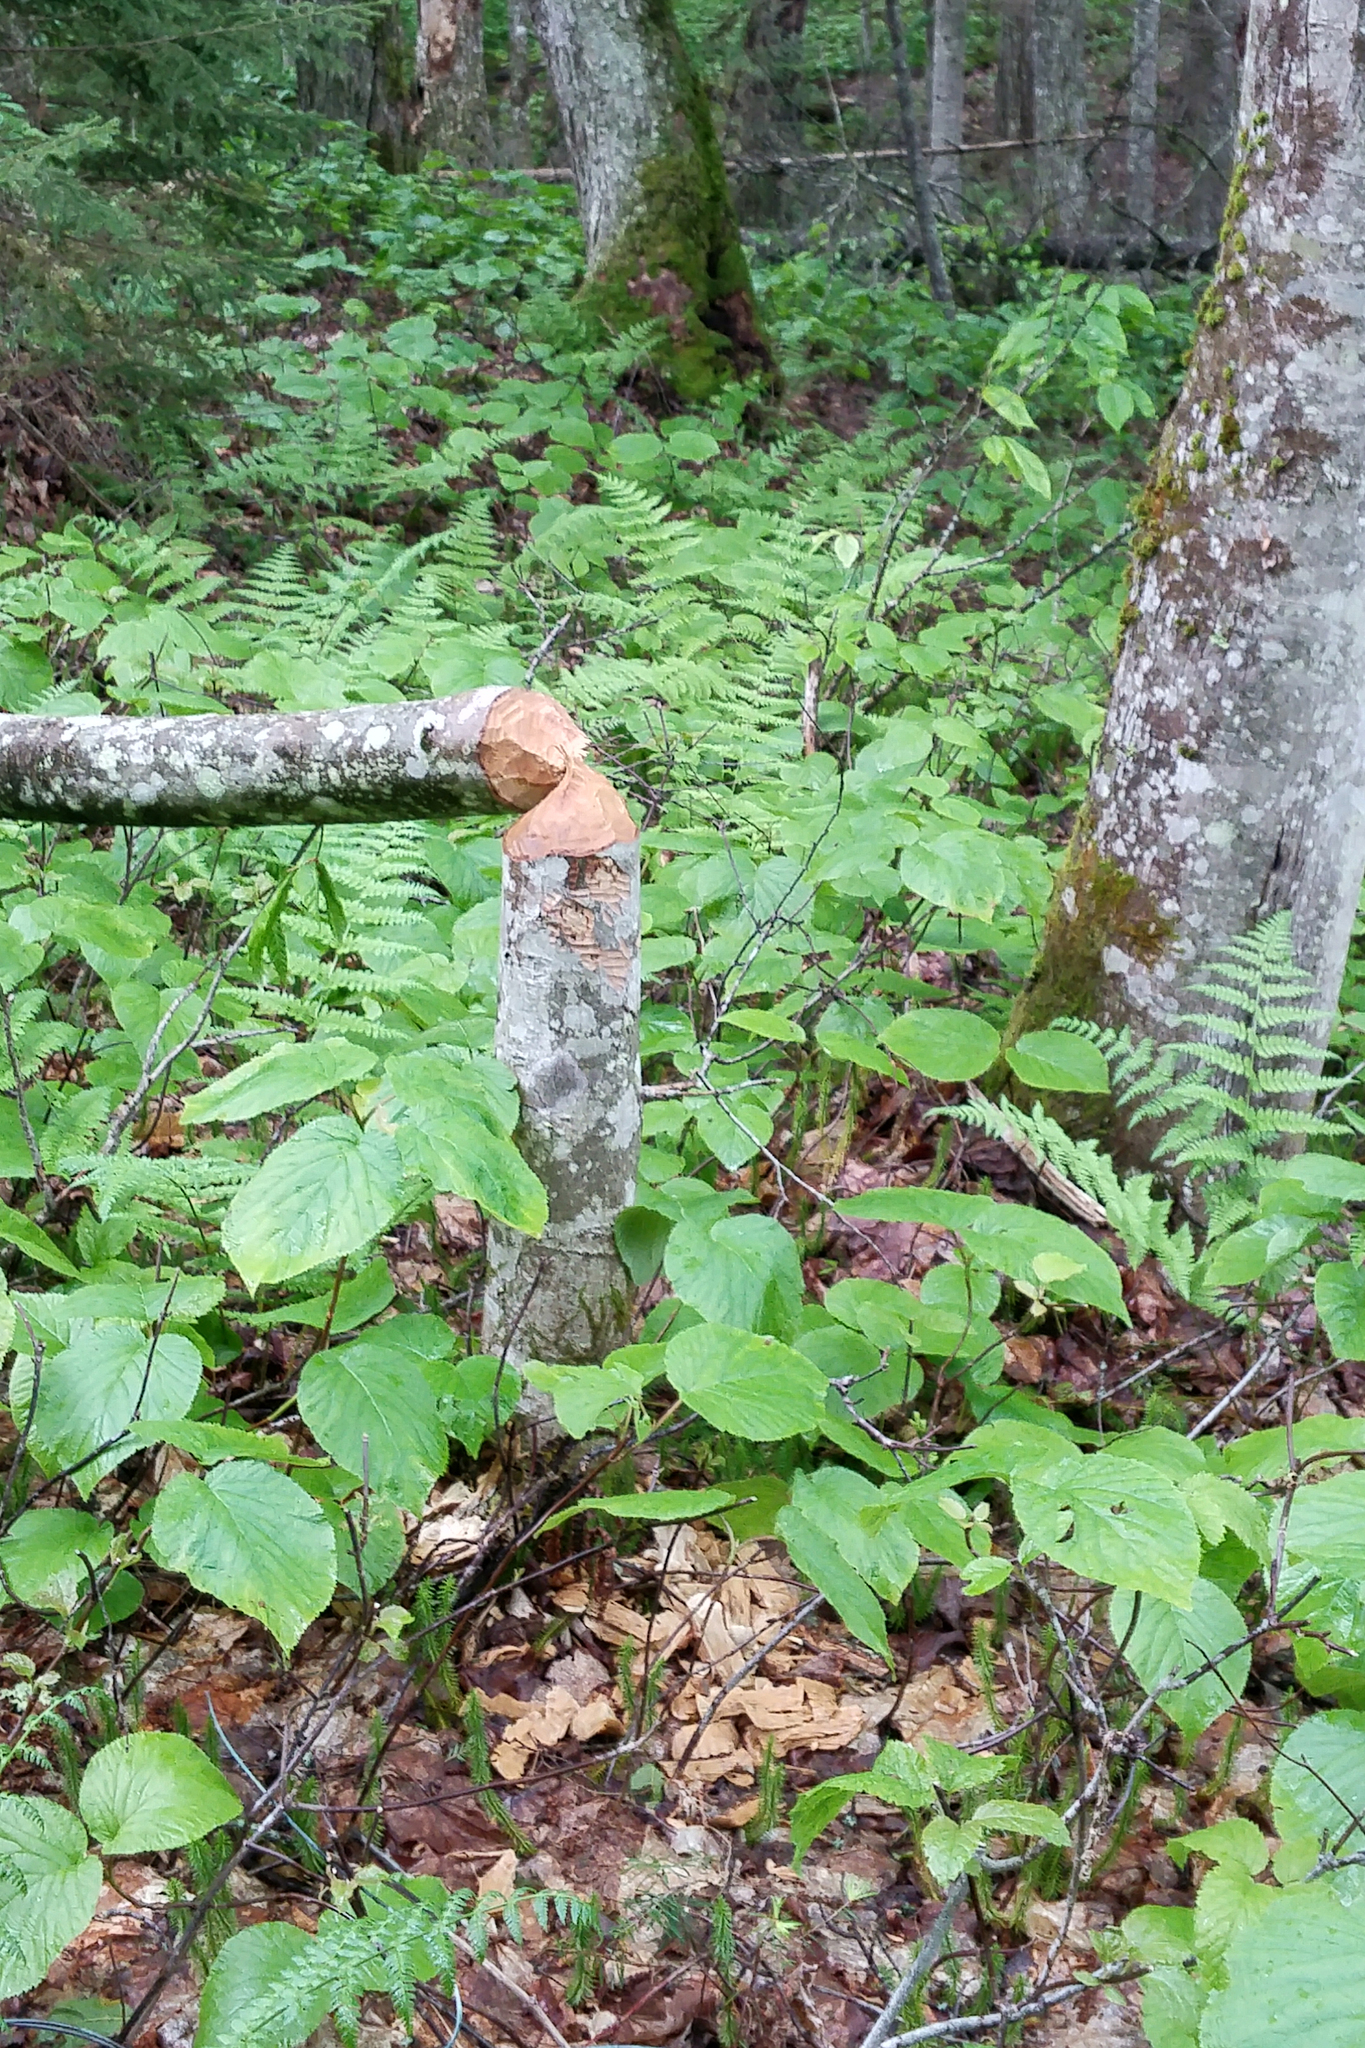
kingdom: Animalia
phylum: Chordata
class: Mammalia
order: Rodentia
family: Castoridae
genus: Castor
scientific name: Castor canadensis
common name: American beaver
